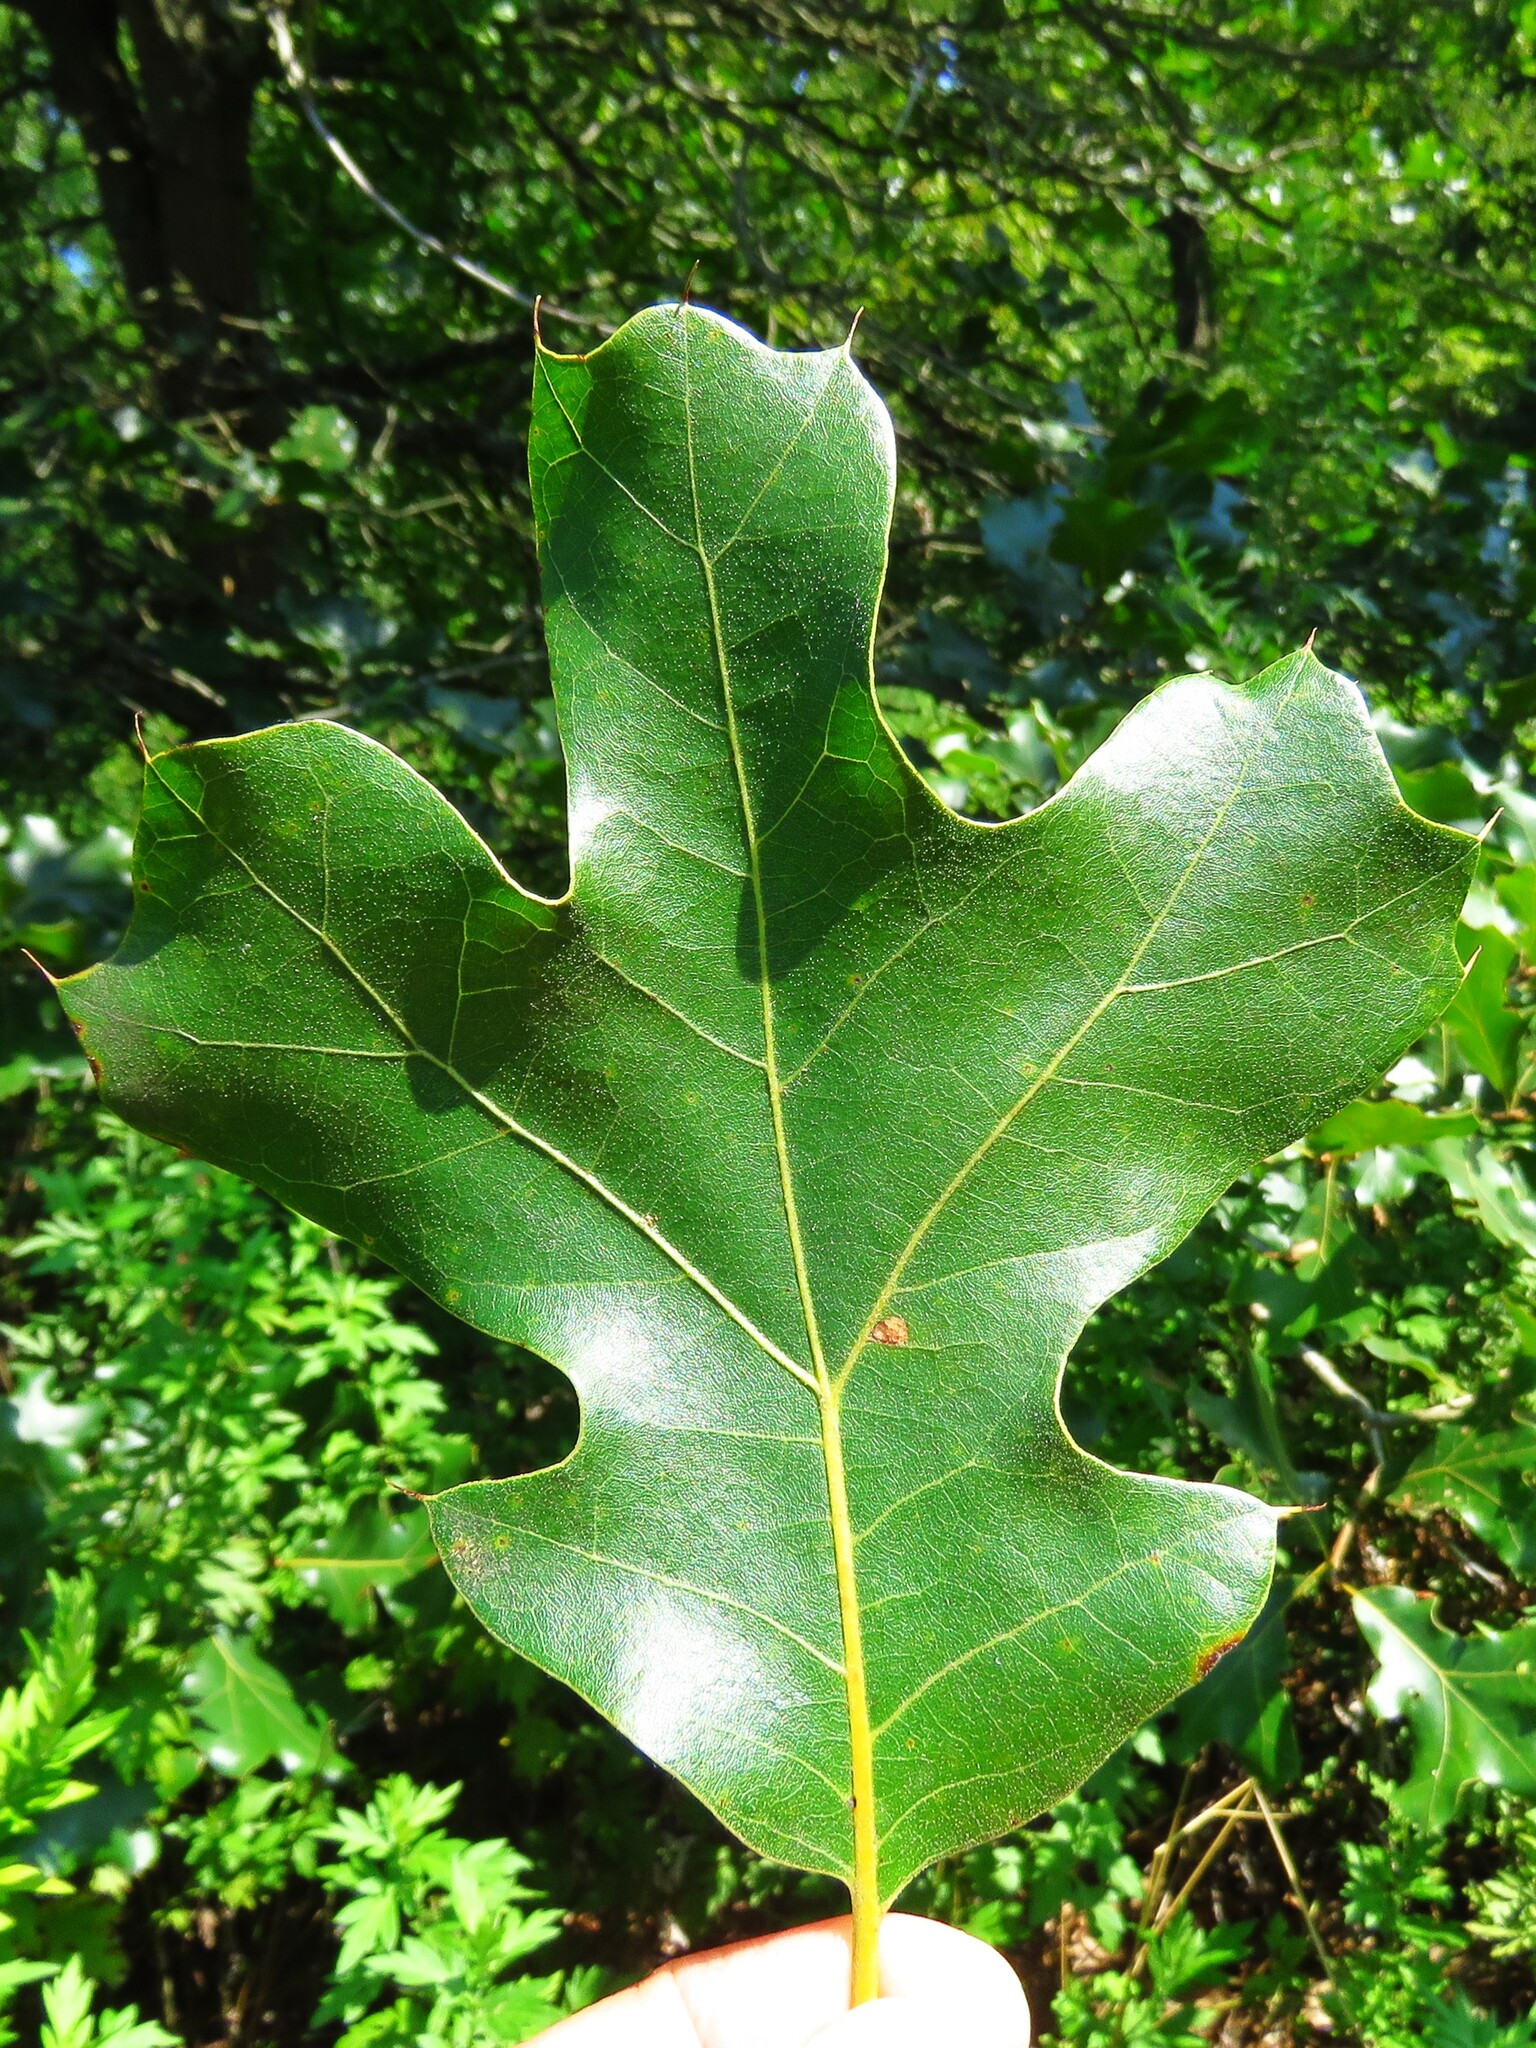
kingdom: Plantae
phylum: Tracheophyta
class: Magnoliopsida
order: Fagales
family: Fagaceae
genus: Quercus
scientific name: Quercus marilandica
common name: Blackjack oak
